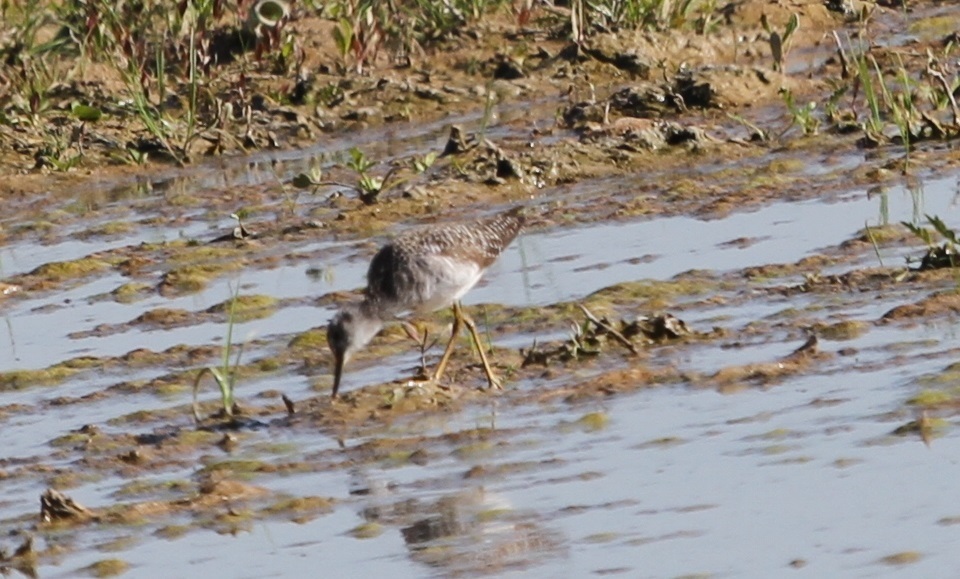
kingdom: Animalia
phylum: Chordata
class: Aves
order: Charadriiformes
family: Scolopacidae
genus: Tringa
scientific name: Tringa glareola
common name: Wood sandpiper
